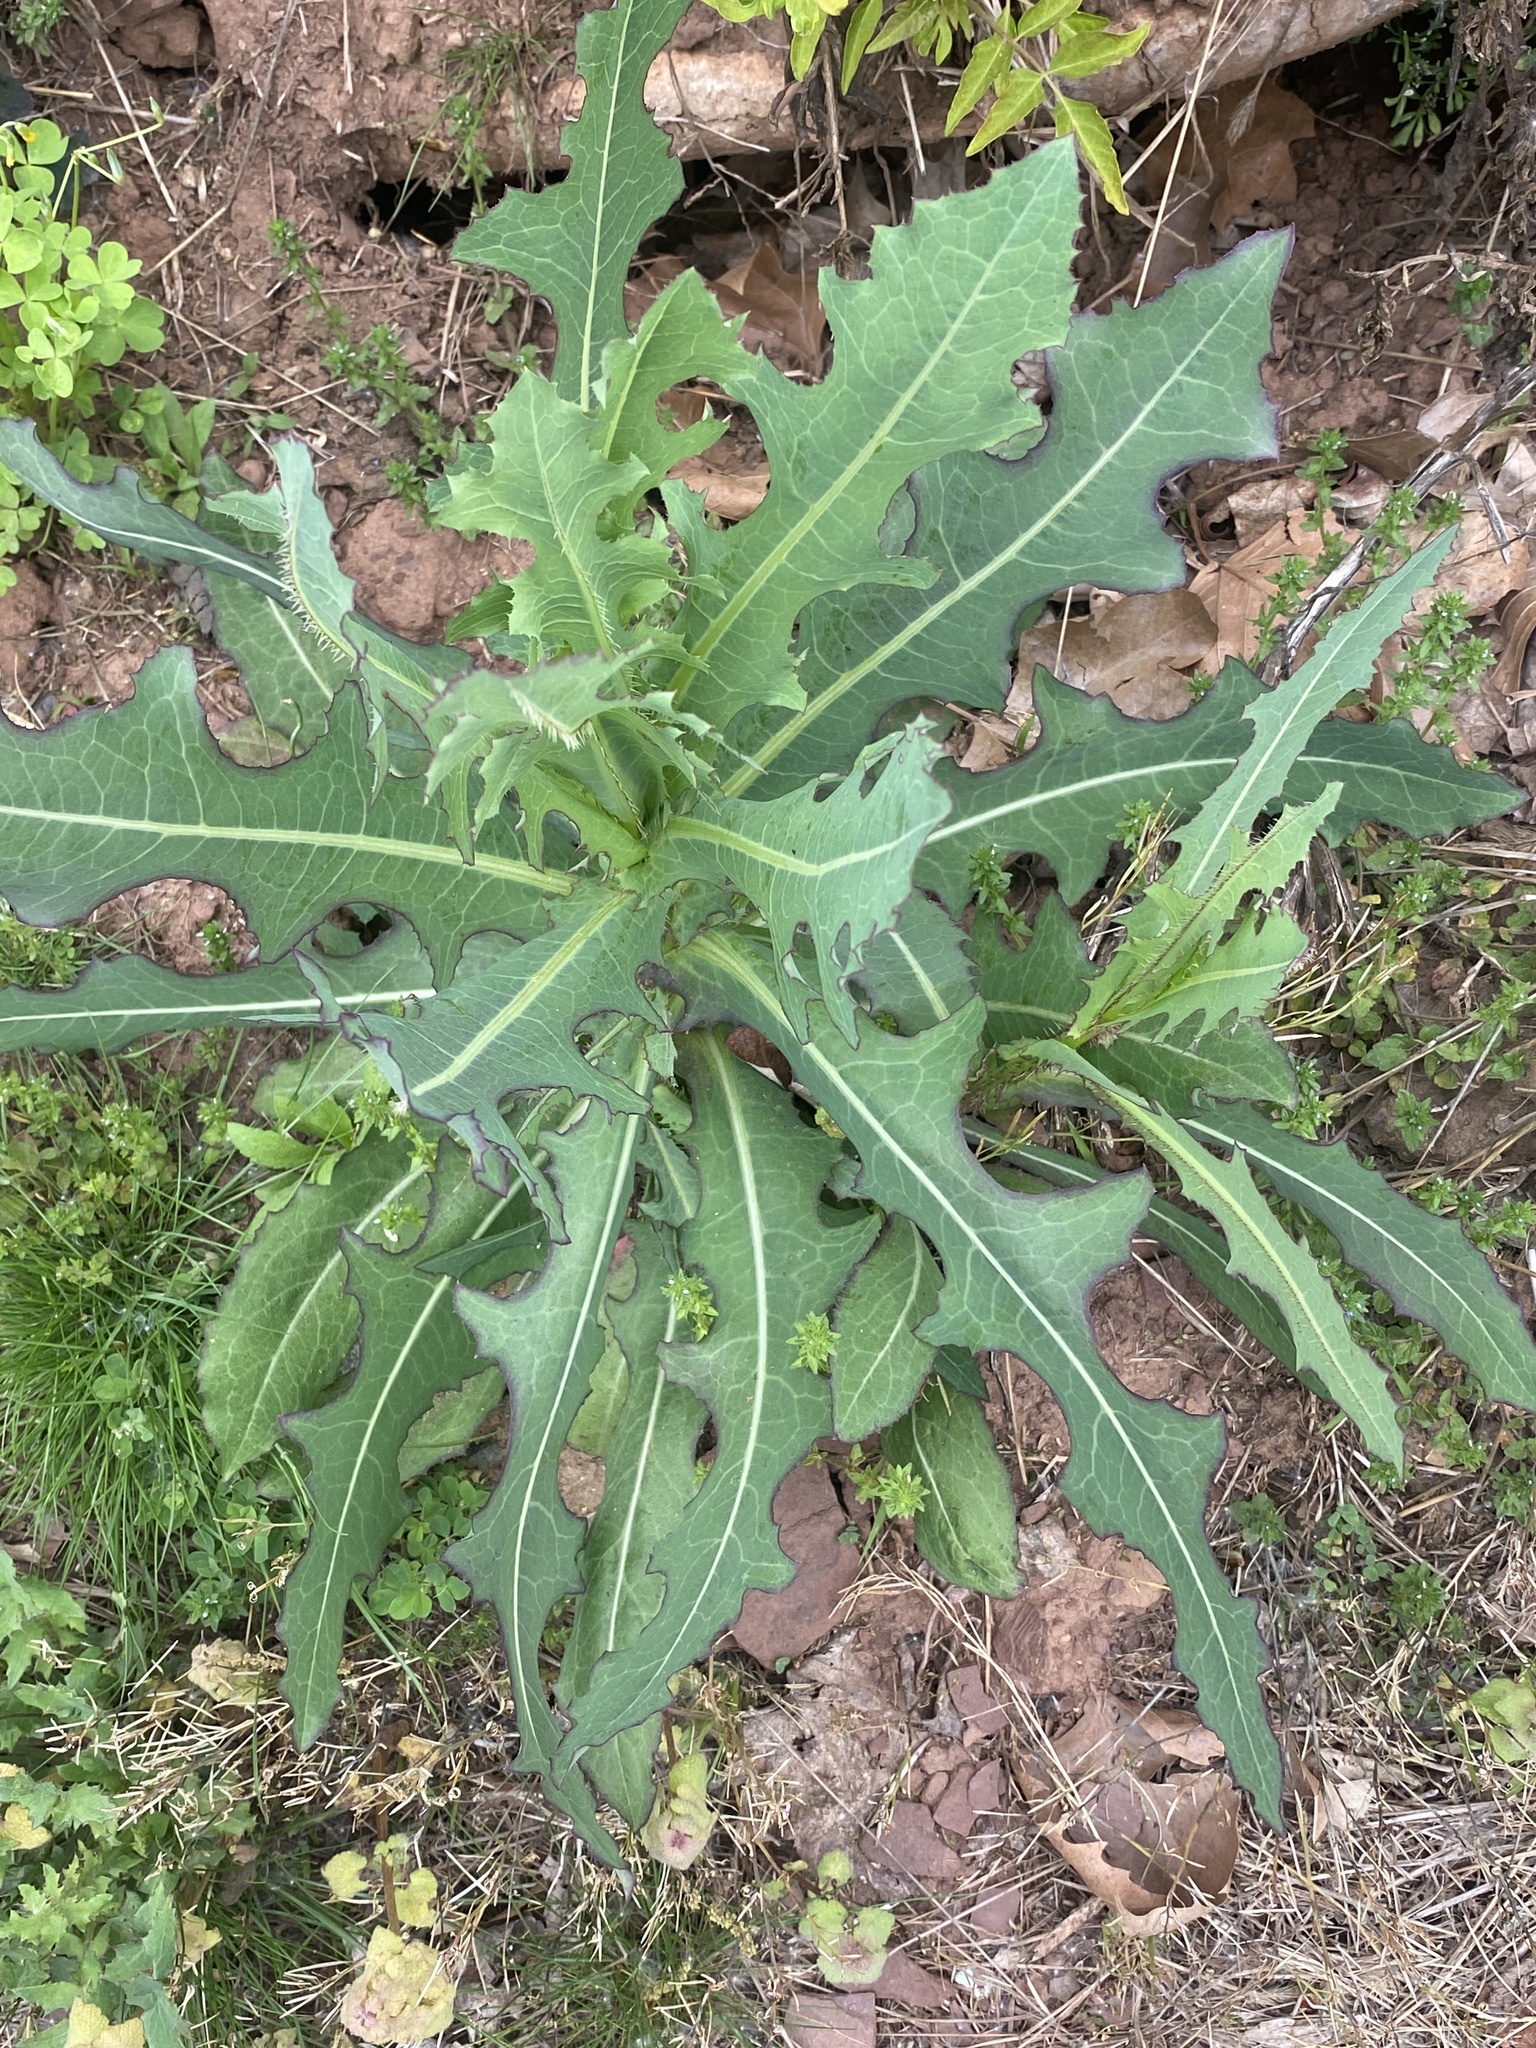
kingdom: Plantae
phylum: Tracheophyta
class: Magnoliopsida
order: Asterales
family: Asteraceae
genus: Lactuca
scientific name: Lactuca serriola
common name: Prickly lettuce
